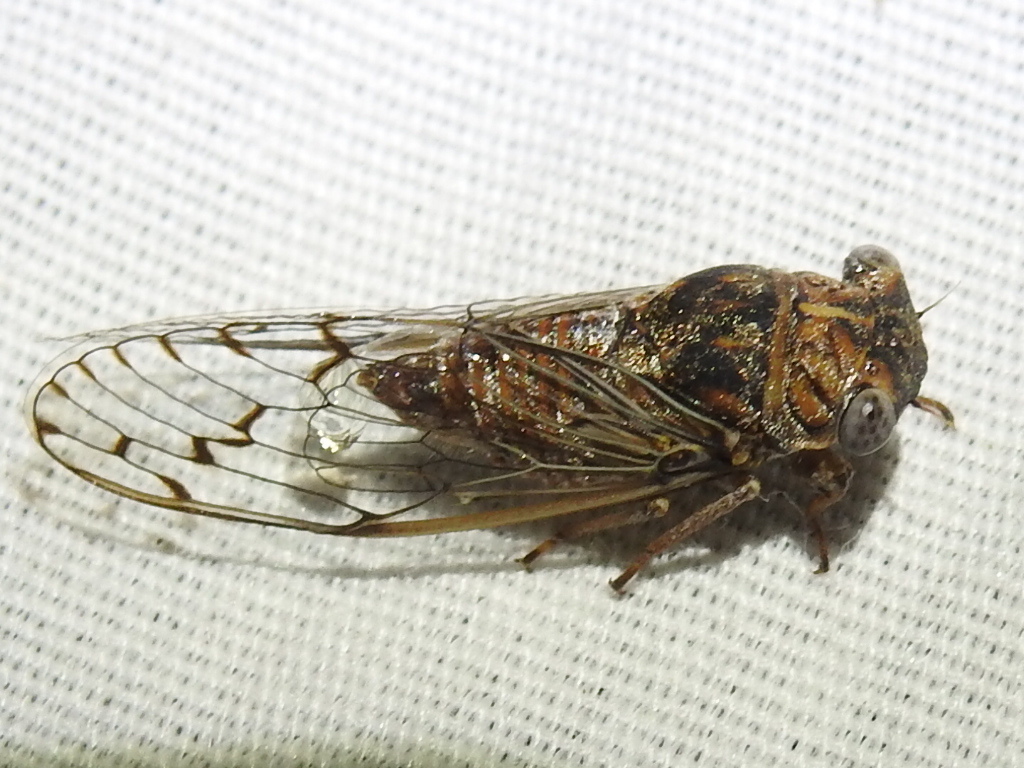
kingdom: Animalia
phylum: Arthropoda
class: Insecta
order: Hemiptera
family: Cicadidae
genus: Pacarina
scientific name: Pacarina puella
